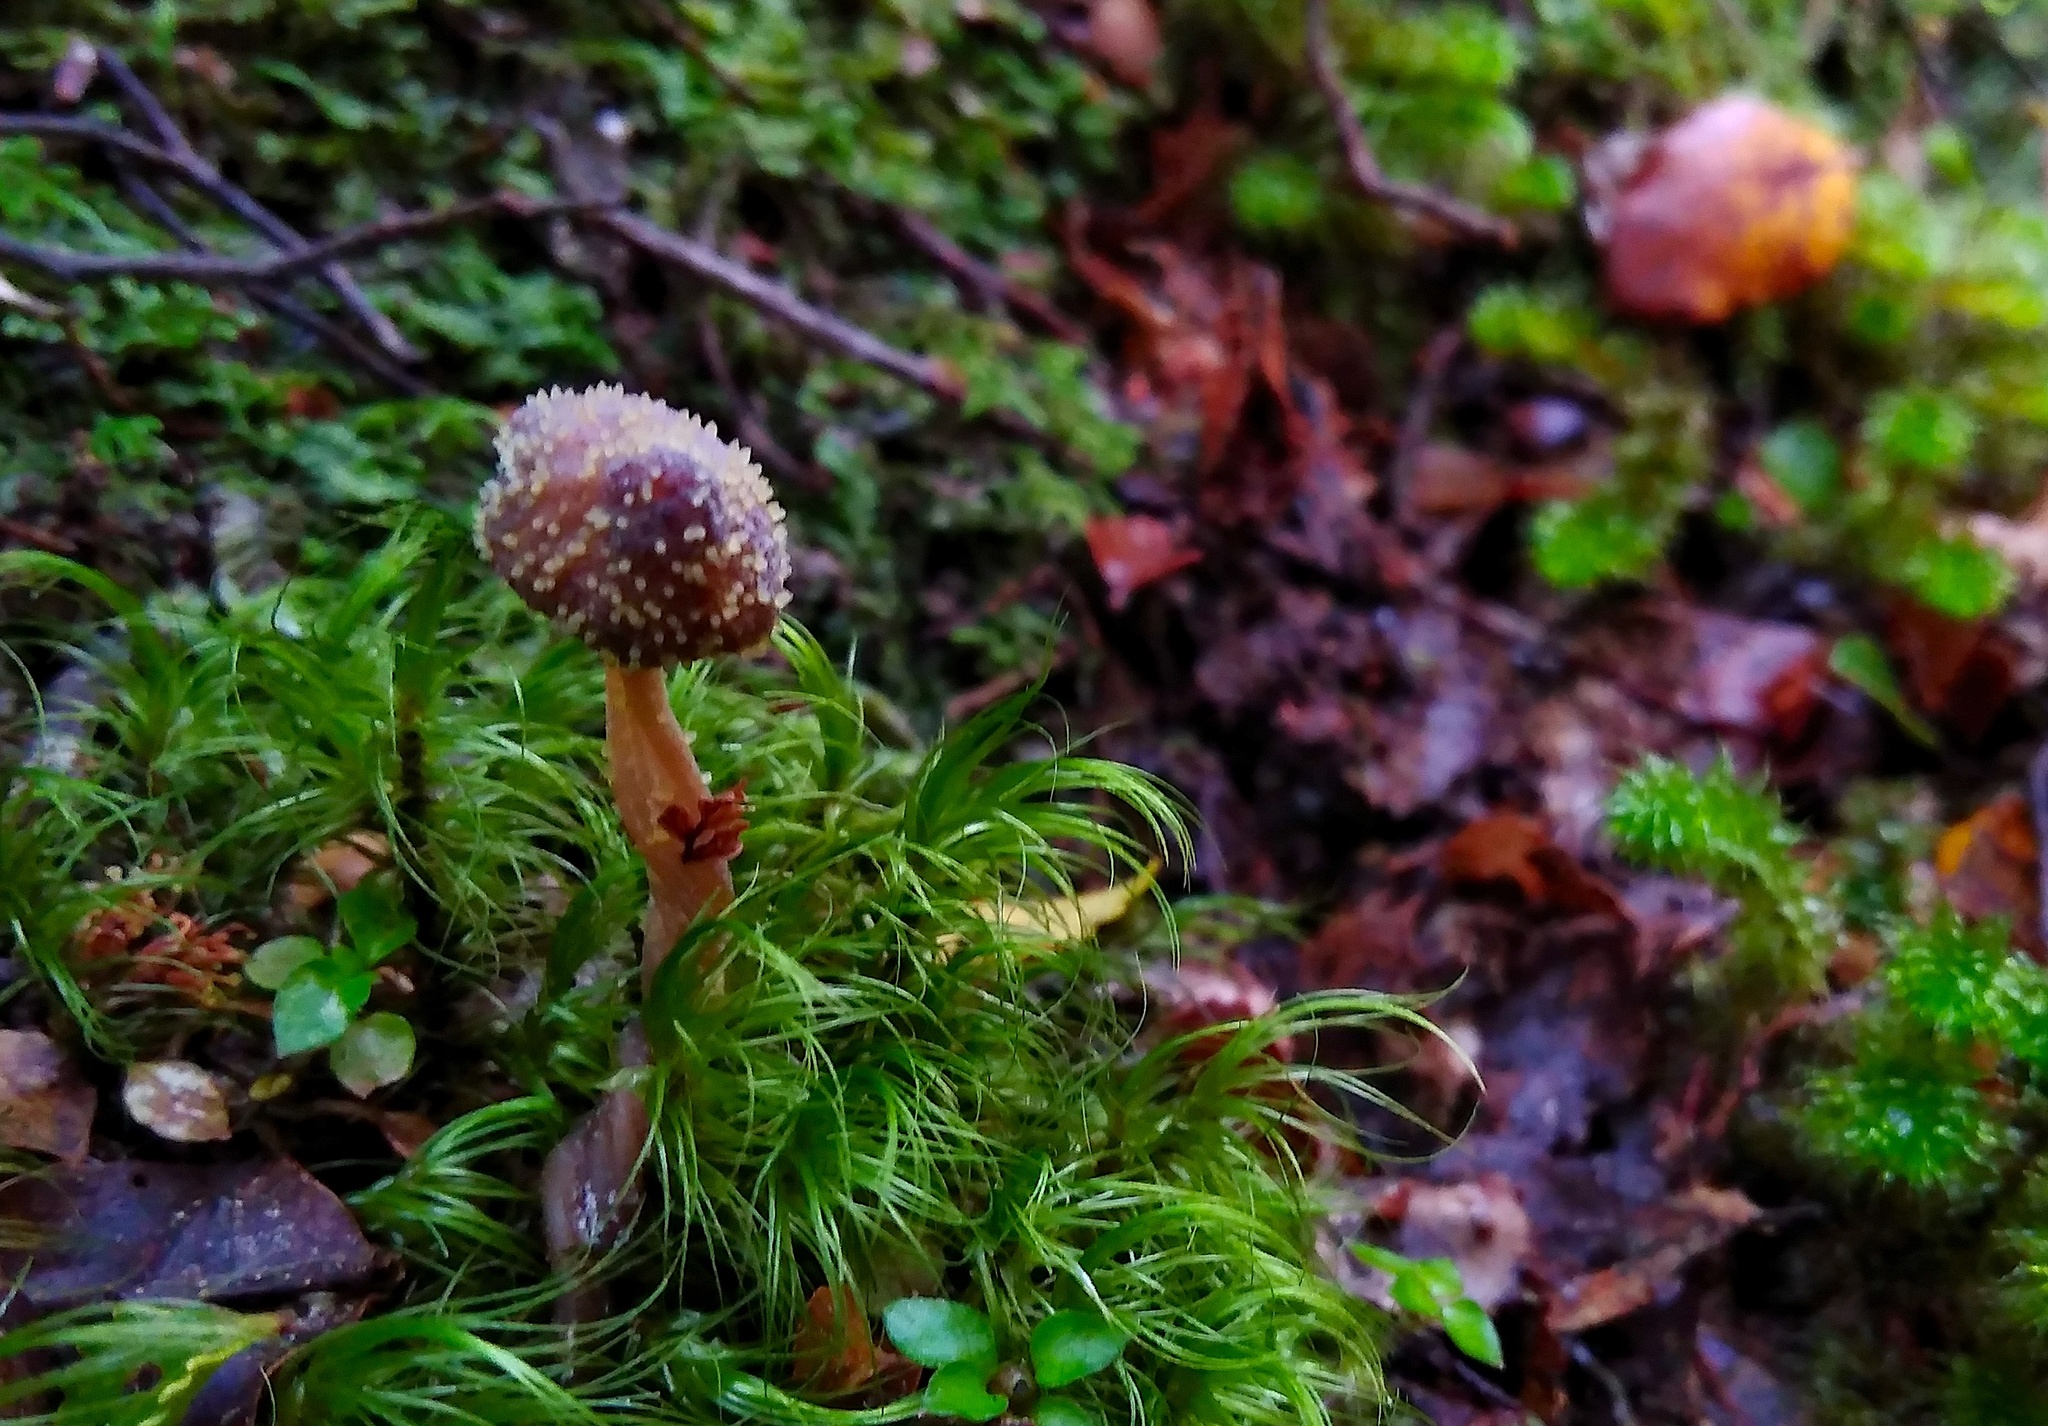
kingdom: Fungi
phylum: Ascomycota
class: Sordariomycetes
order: Hypocreales
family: Clavicipitaceae
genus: Neobarya
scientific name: Neobarya agaricicola
